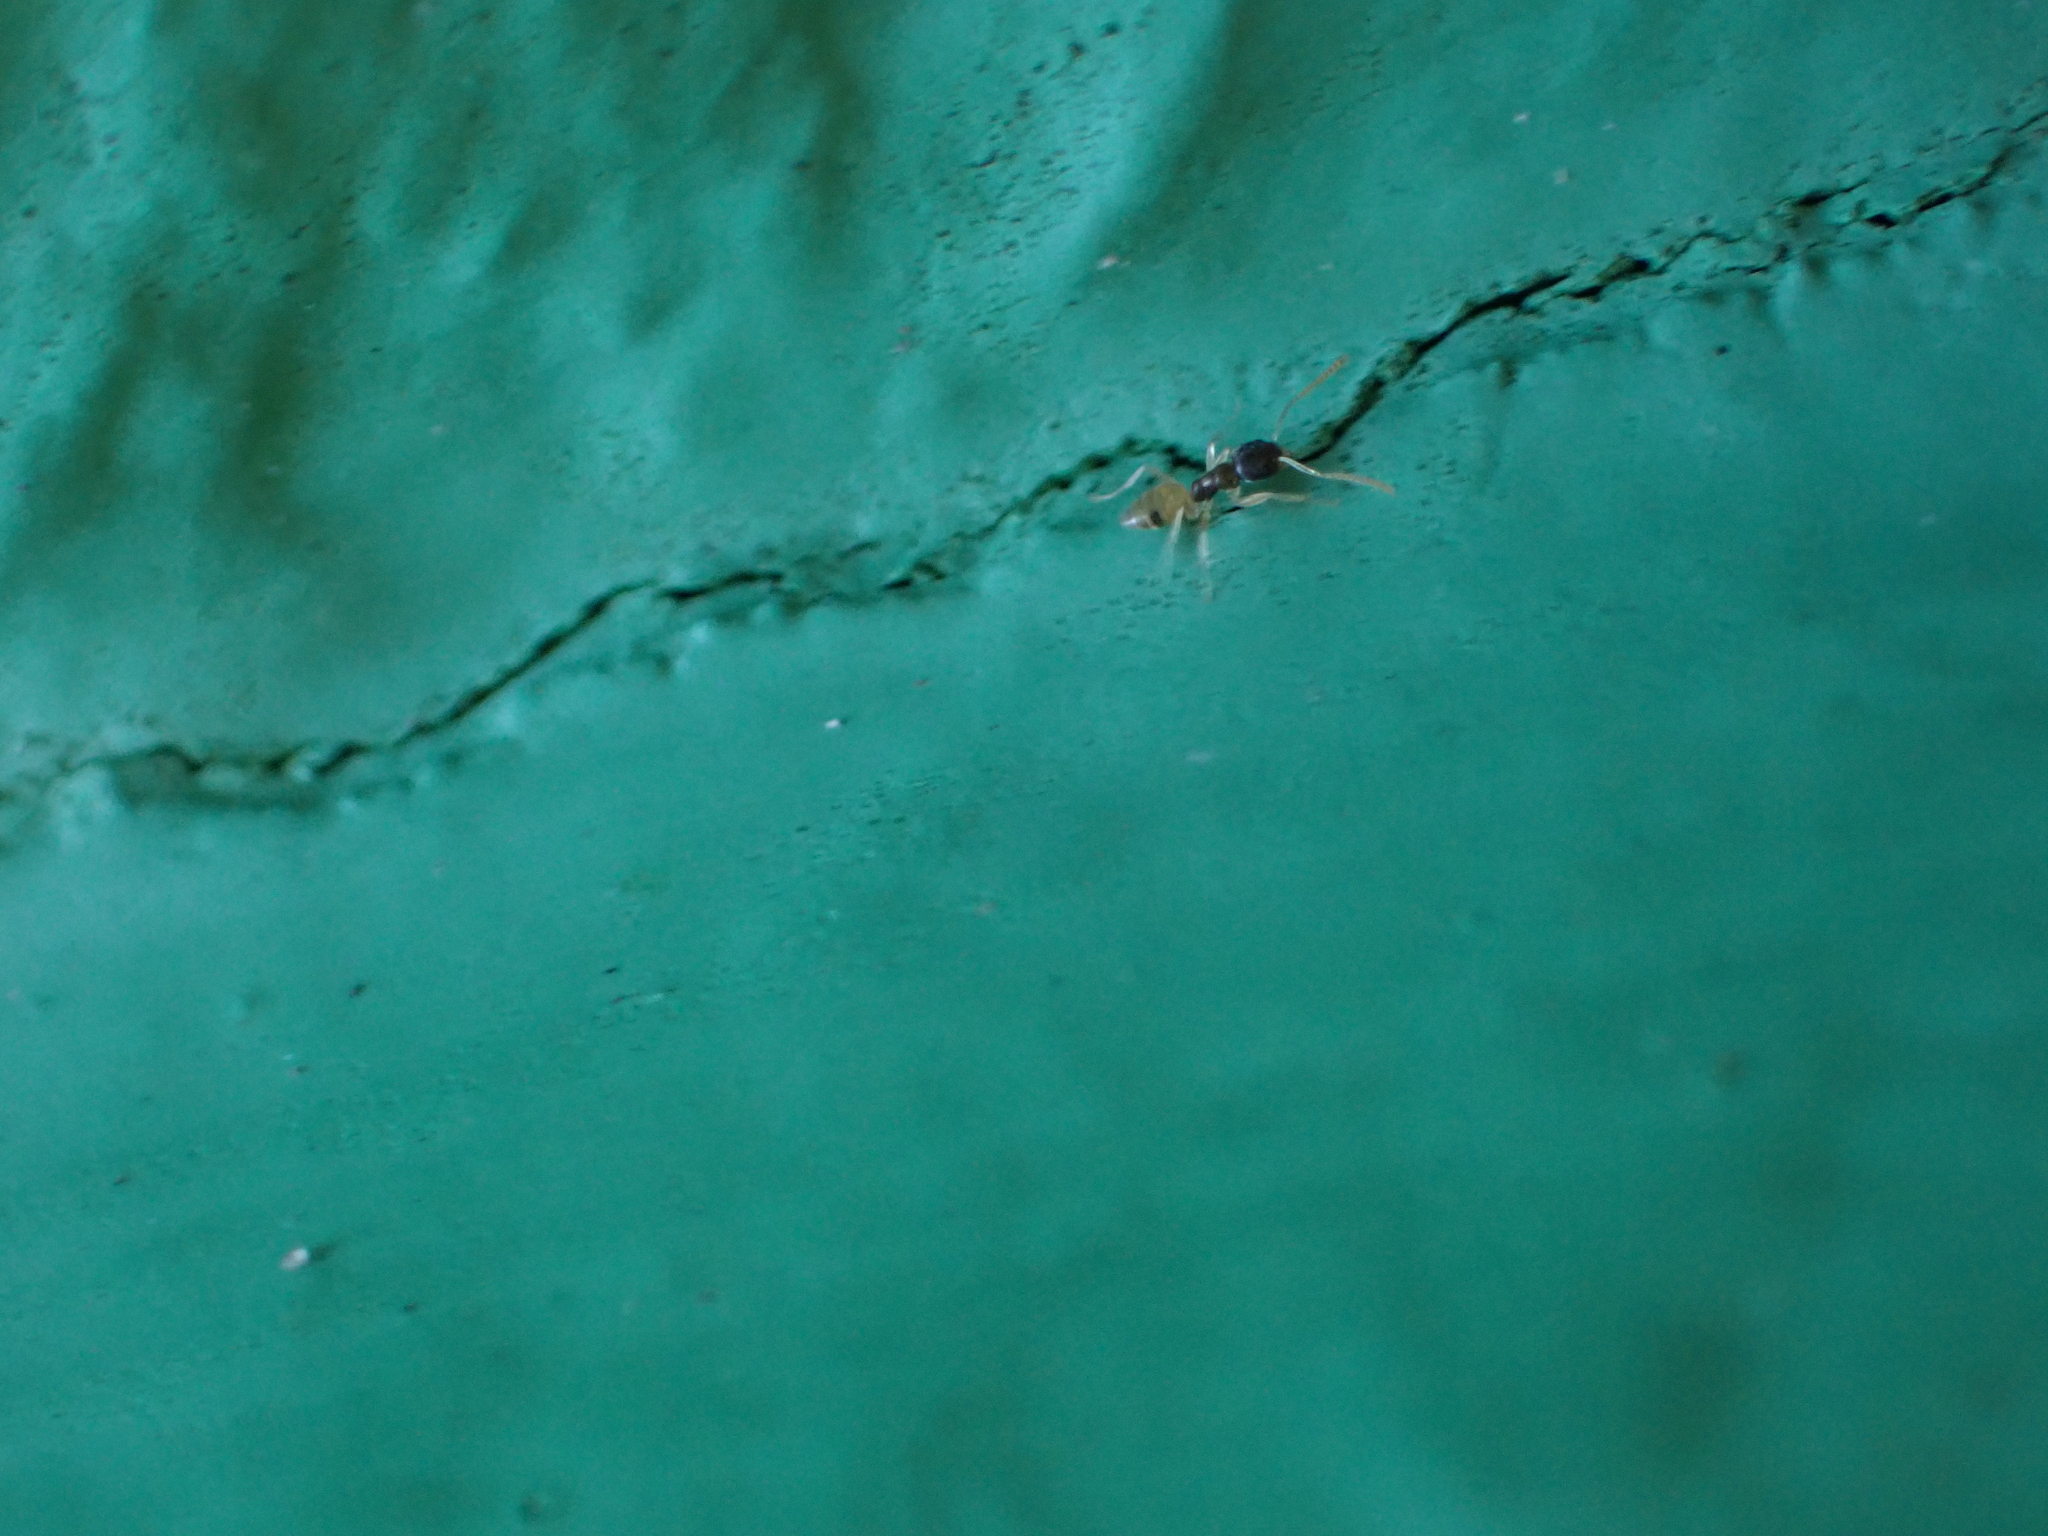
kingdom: Animalia
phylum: Arthropoda
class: Insecta
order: Hymenoptera
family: Formicidae
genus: Tapinoma
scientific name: Tapinoma melanocephalum
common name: Ghost ant
